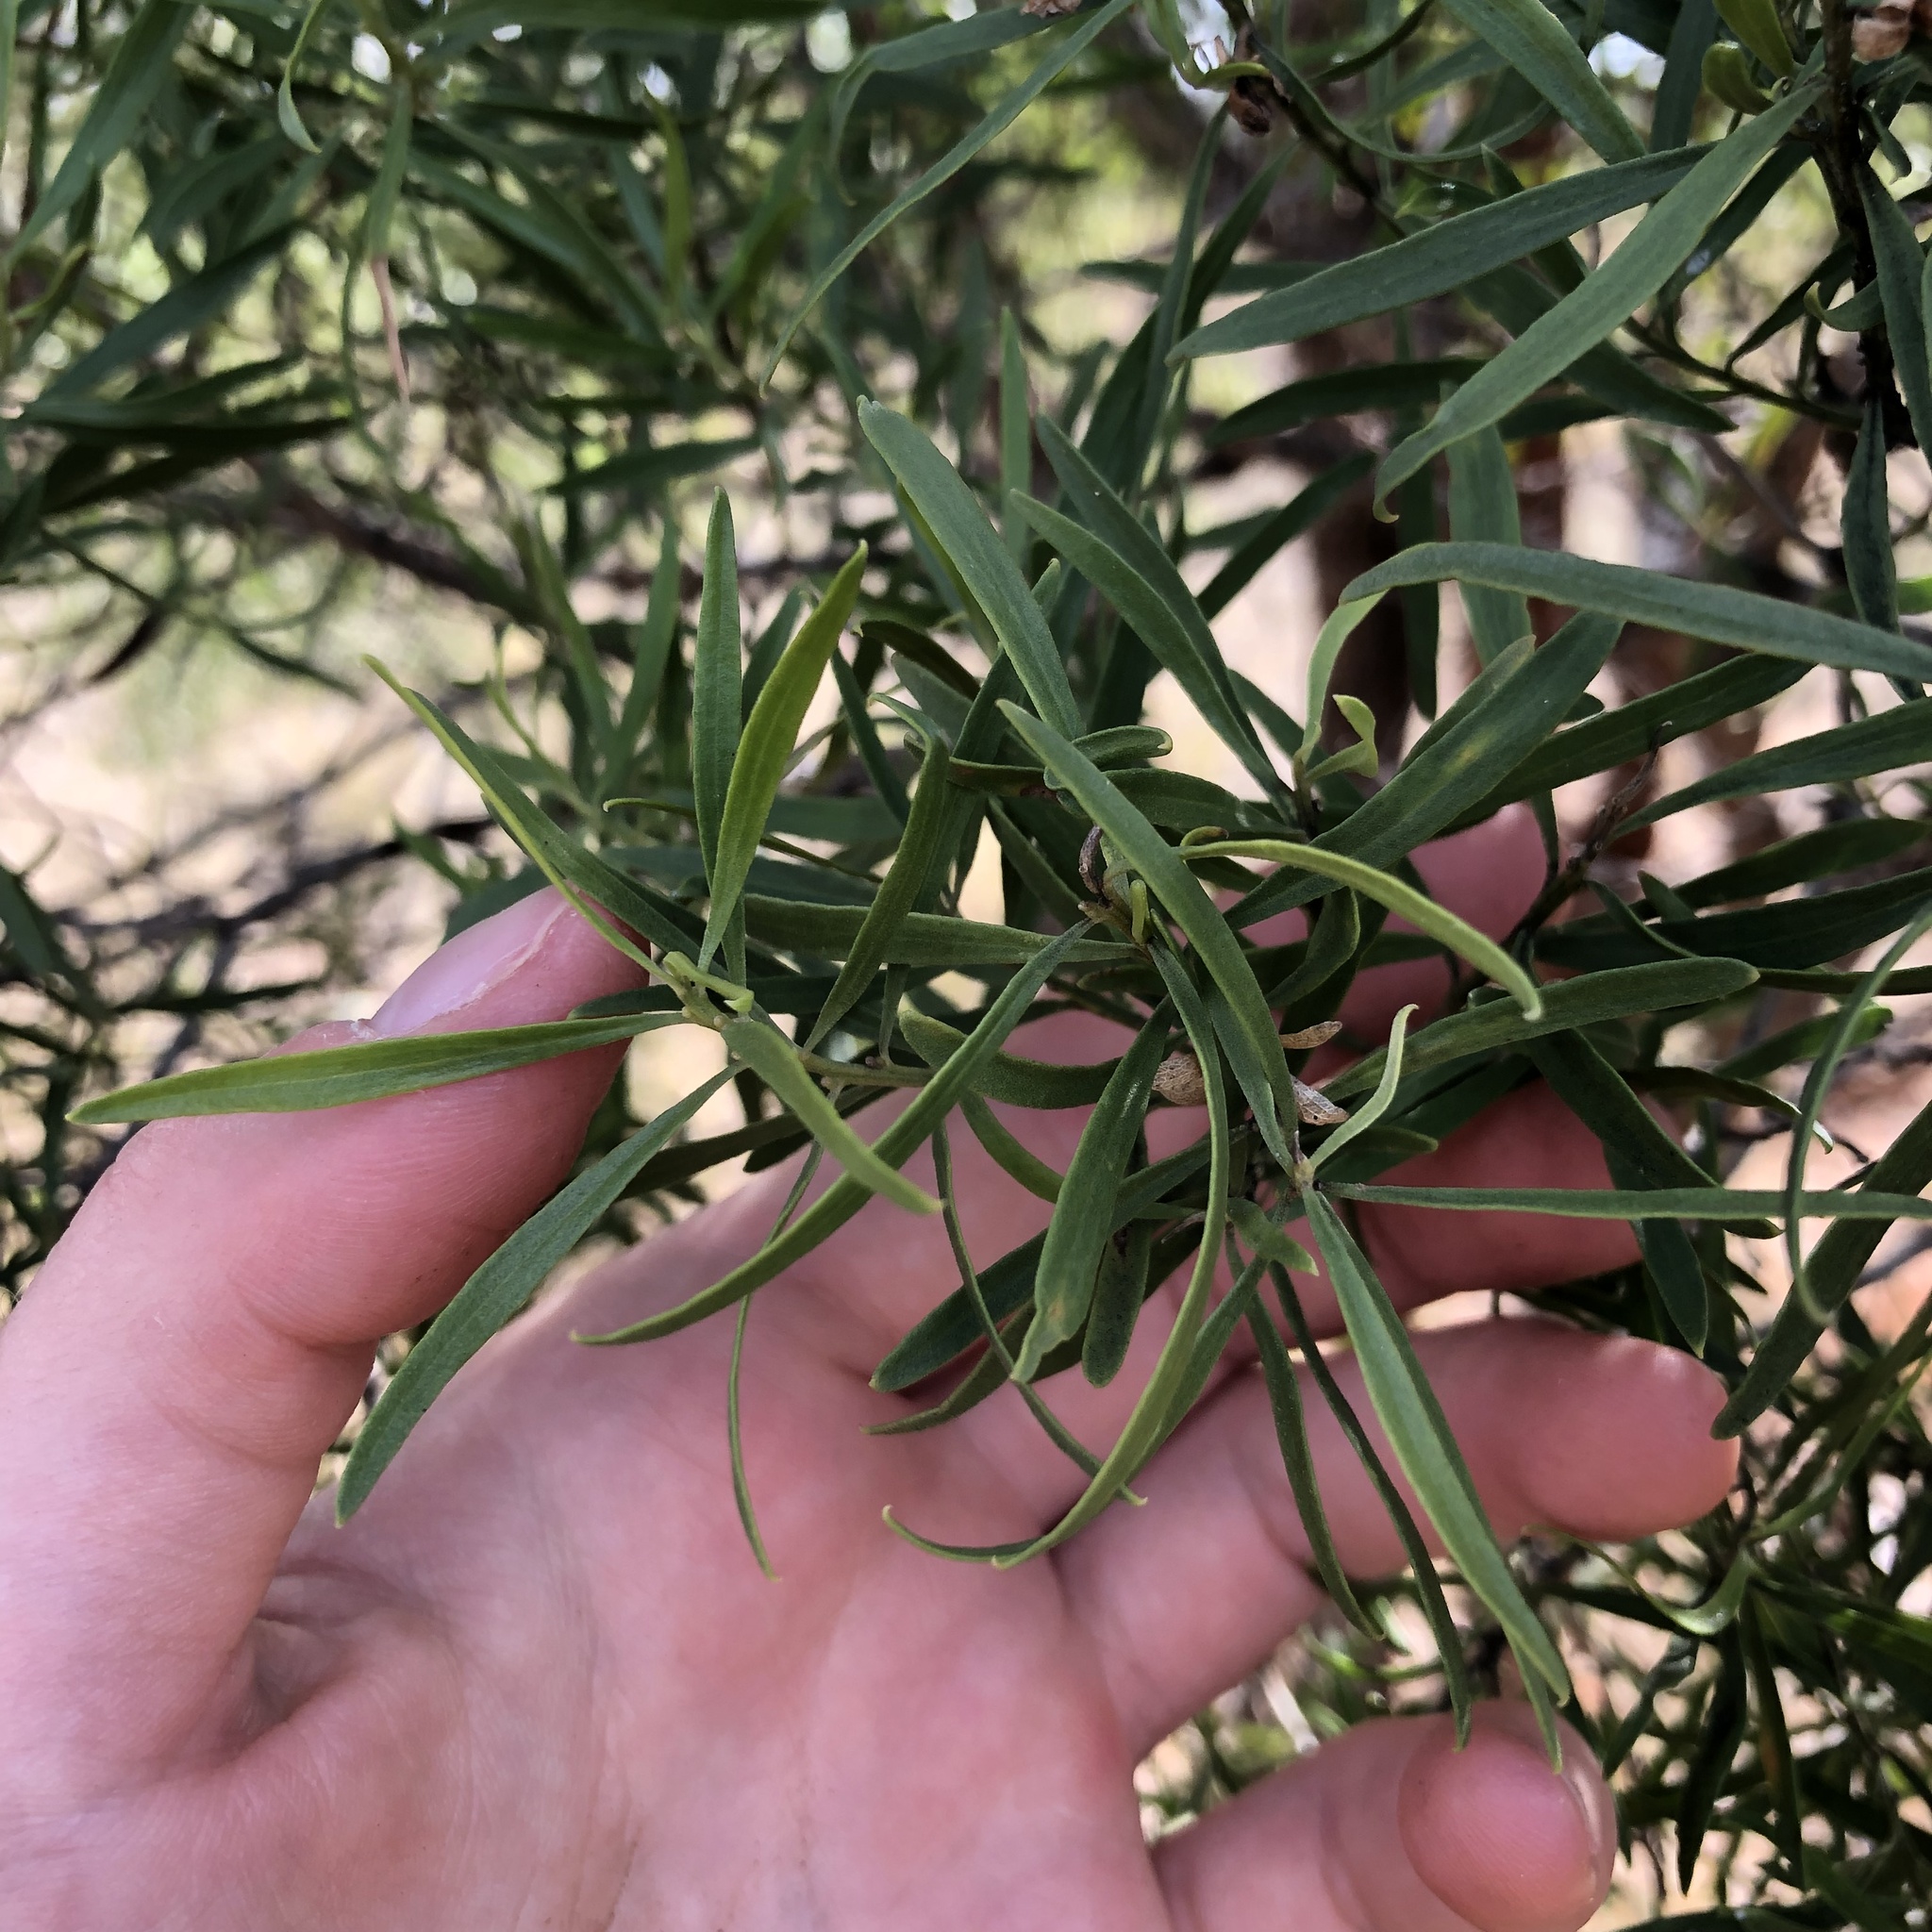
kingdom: Plantae
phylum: Tracheophyta
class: Magnoliopsida
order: Lamiales
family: Scrophulariaceae
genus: Eremophila
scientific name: Eremophila mitchellii
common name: Bastard-sandalwood
